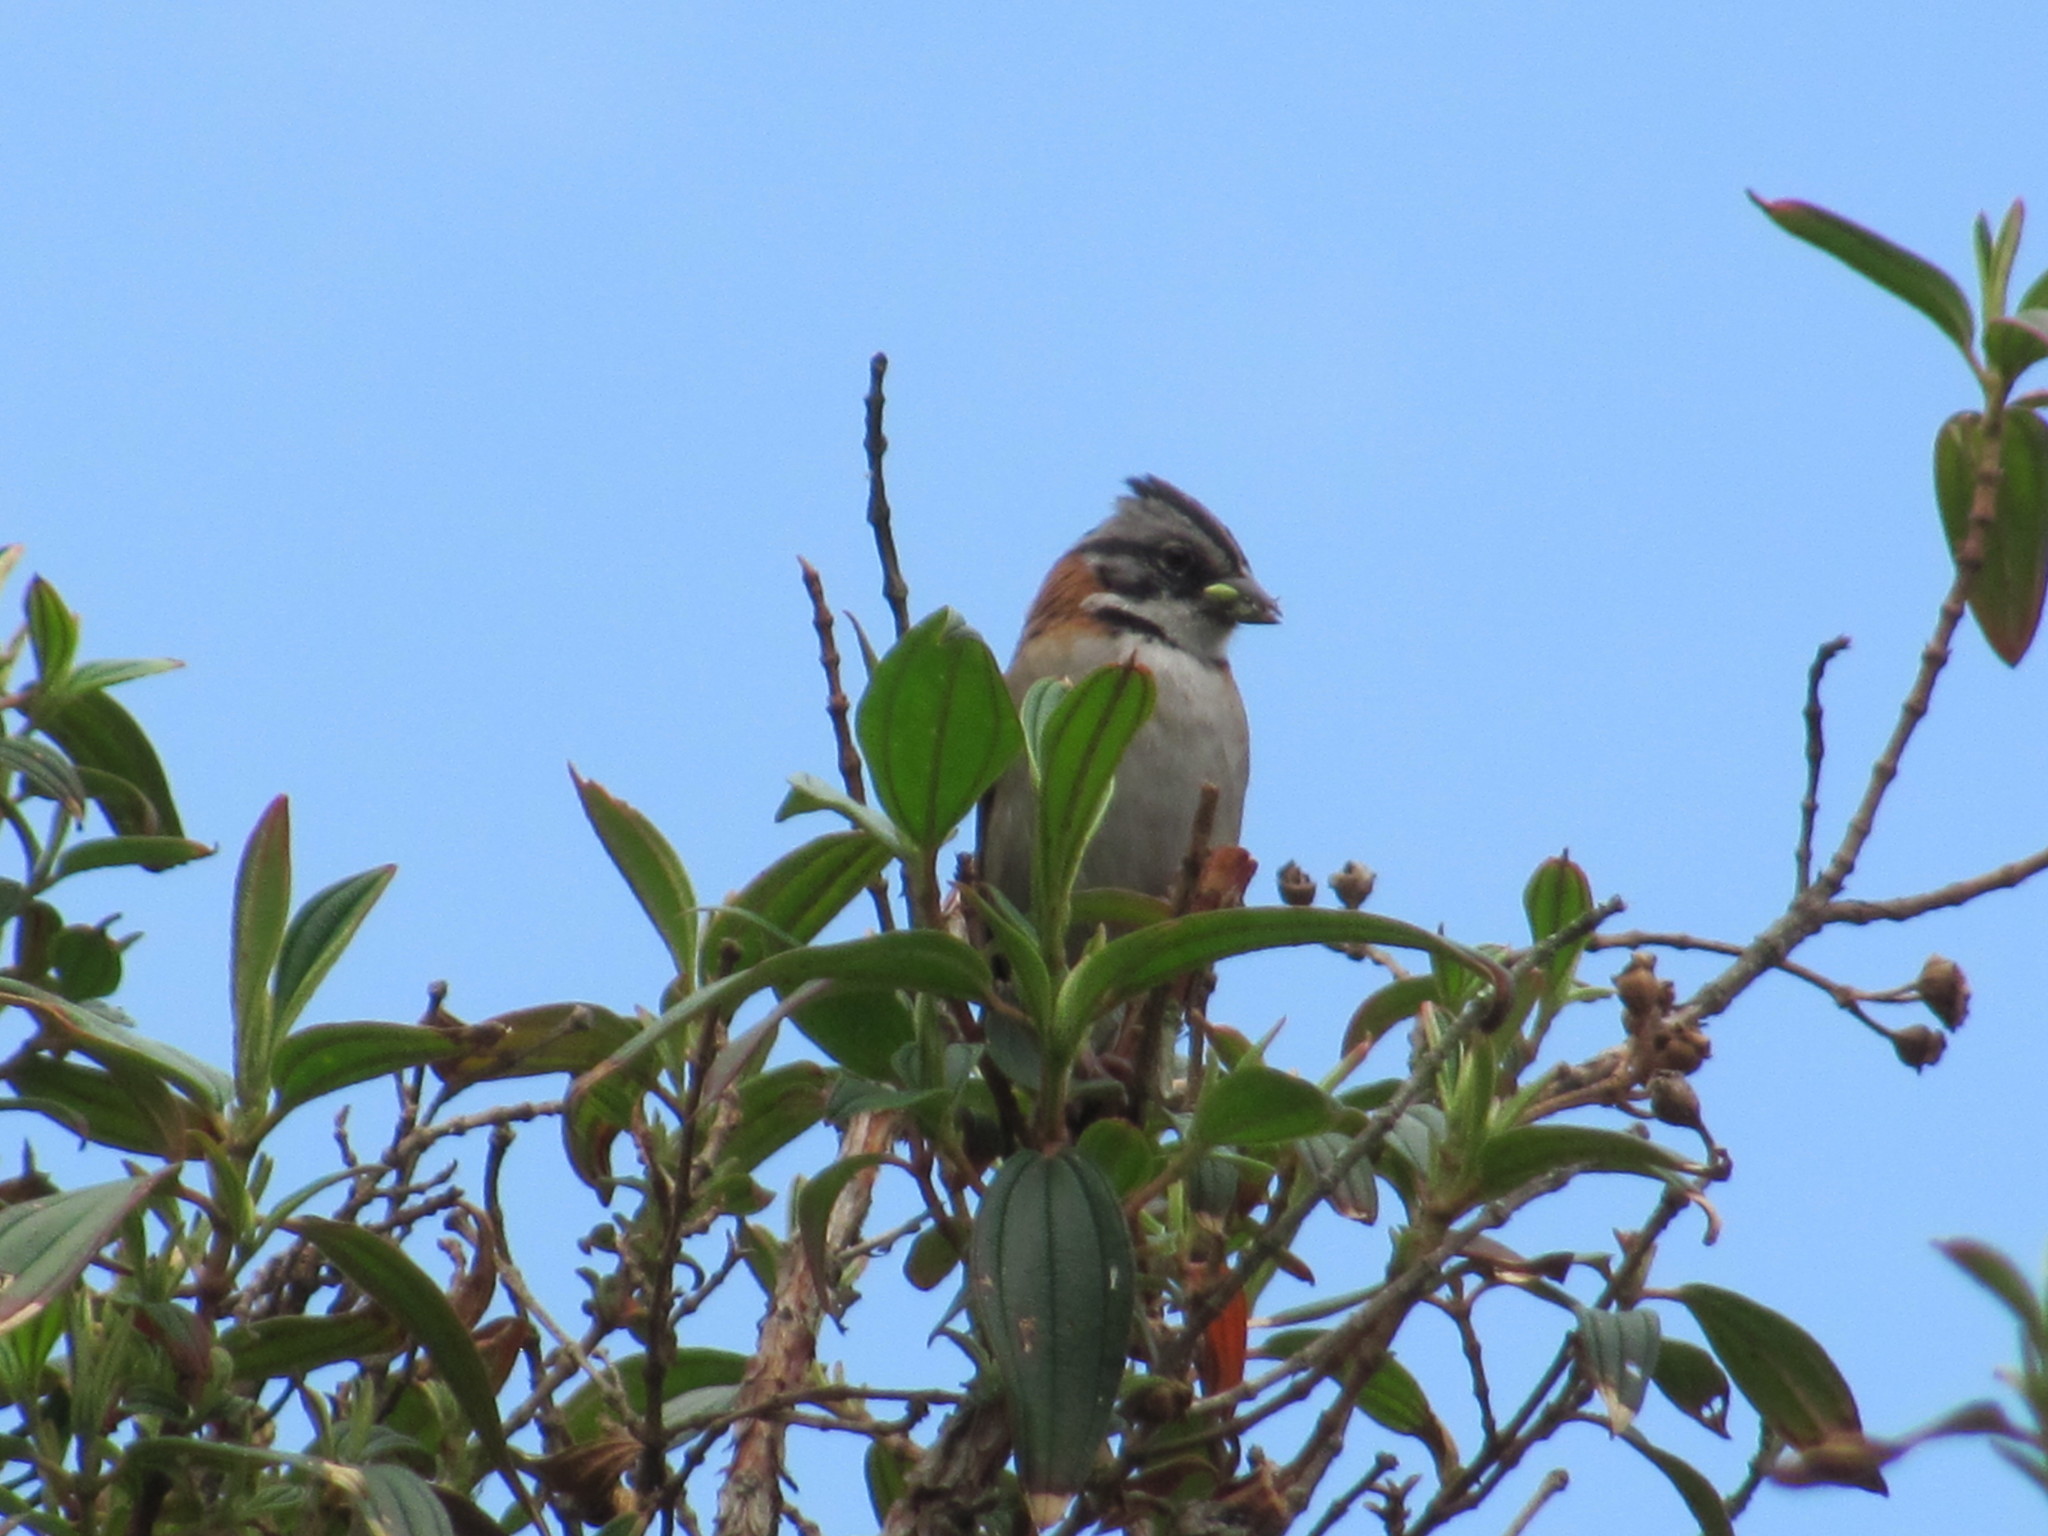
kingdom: Animalia
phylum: Chordata
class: Aves
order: Passeriformes
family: Passerellidae
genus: Zonotrichia
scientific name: Zonotrichia capensis
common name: Rufous-collared sparrow
